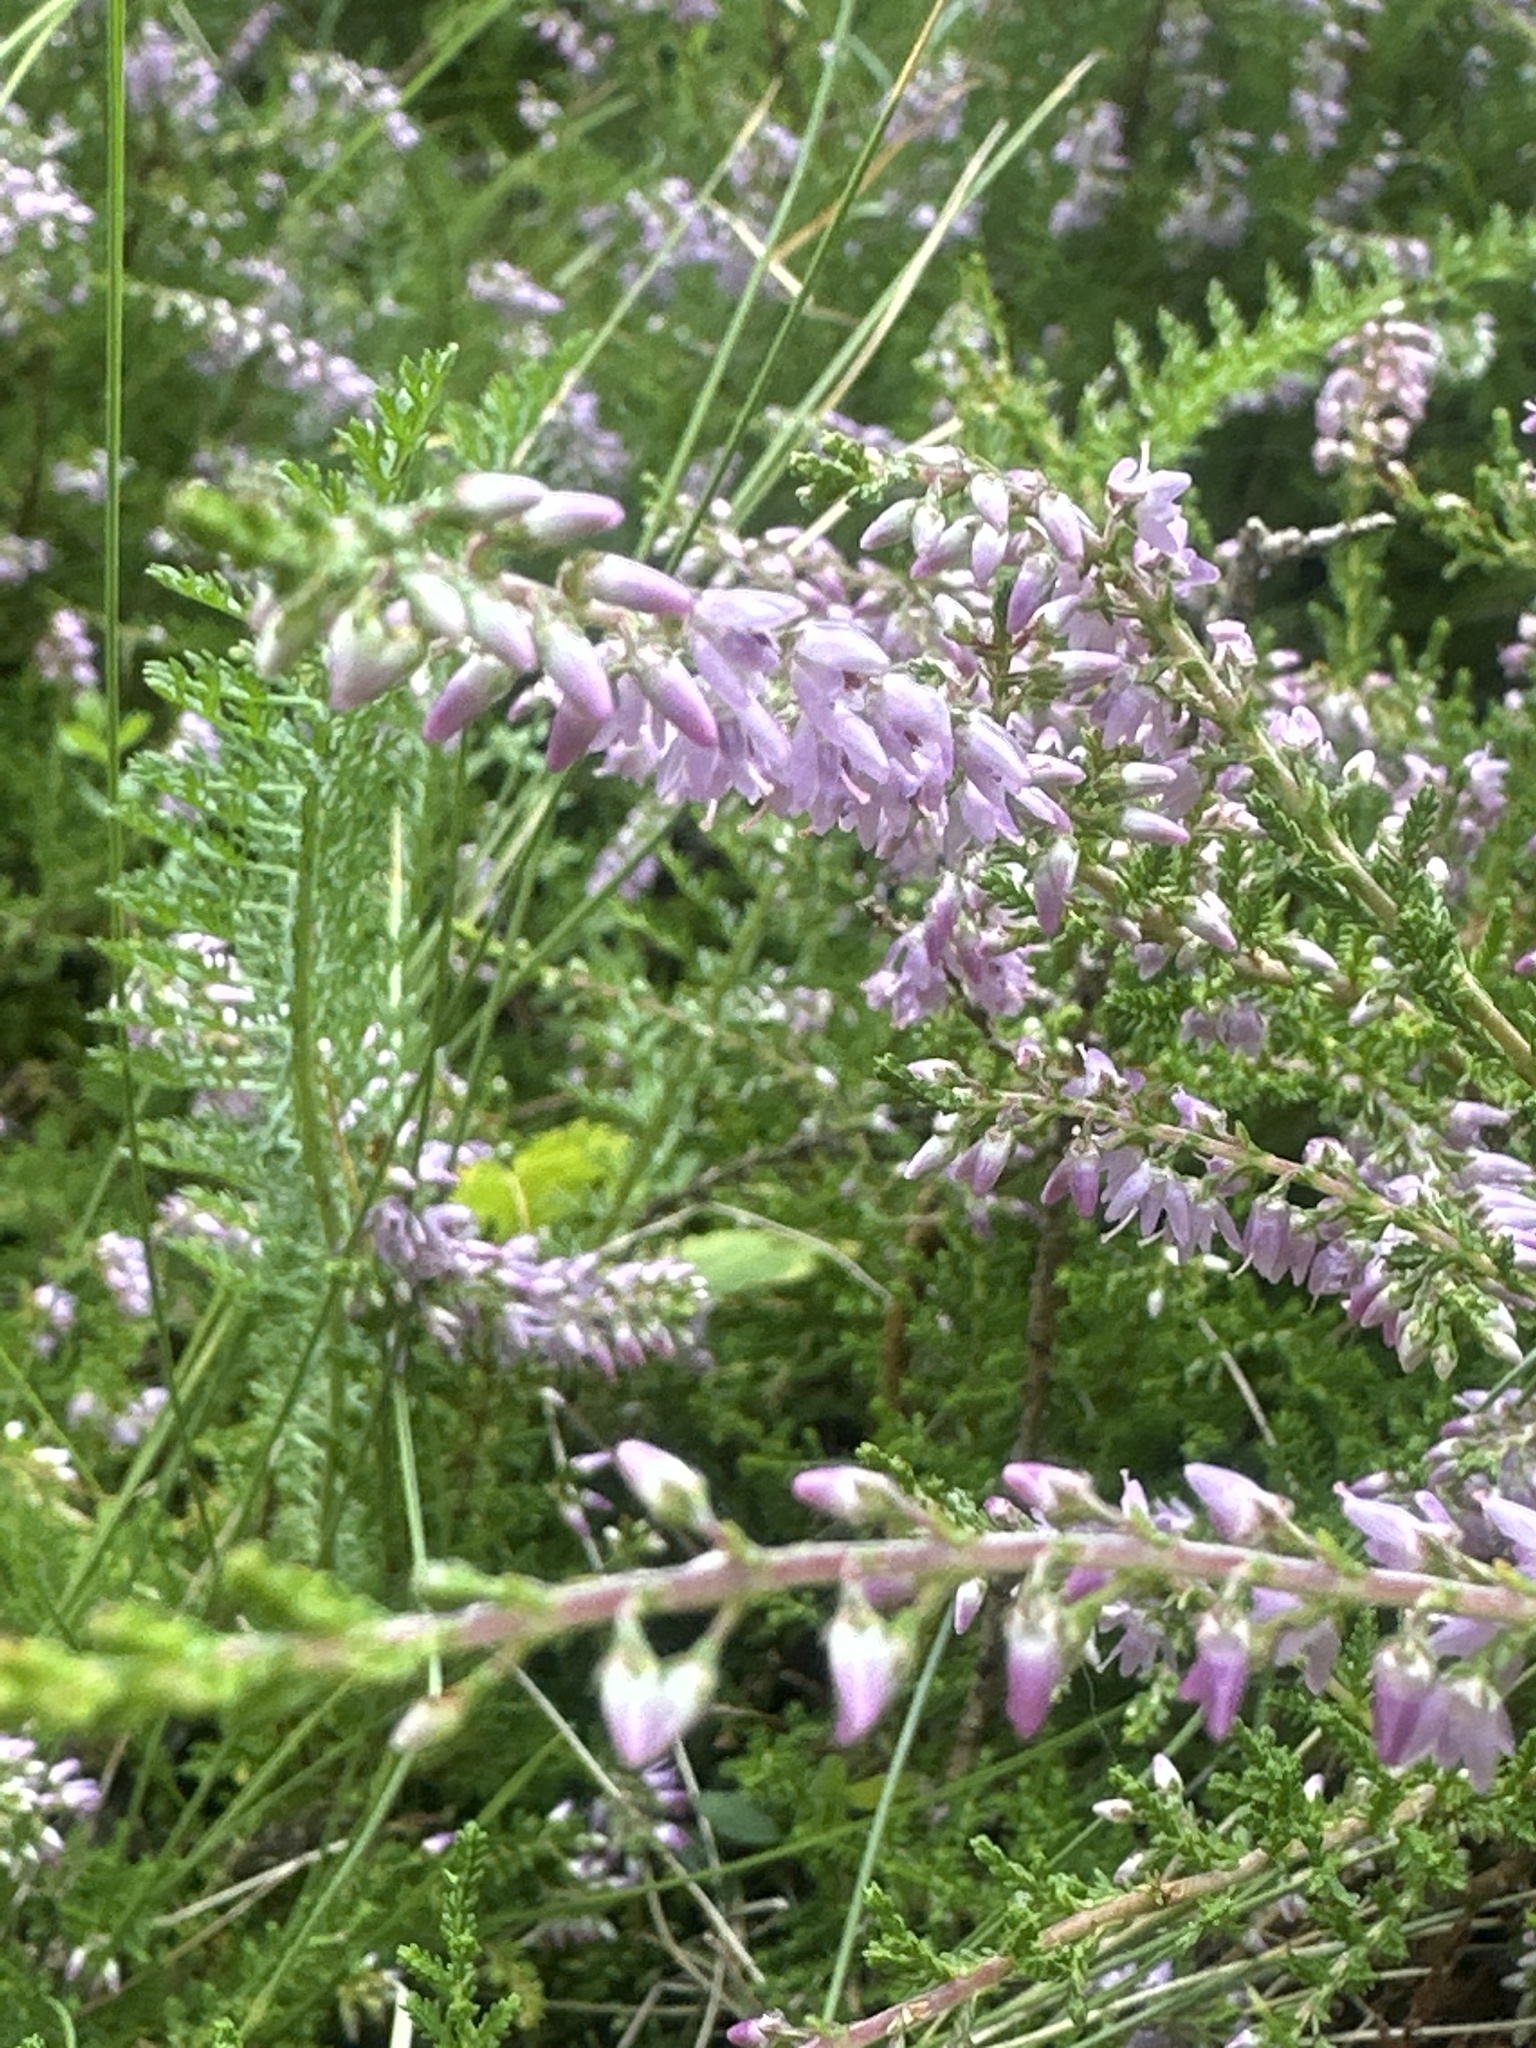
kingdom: Plantae
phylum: Tracheophyta
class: Magnoliopsida
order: Ericales
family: Ericaceae
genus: Calluna
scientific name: Calluna vulgaris
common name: Heather
